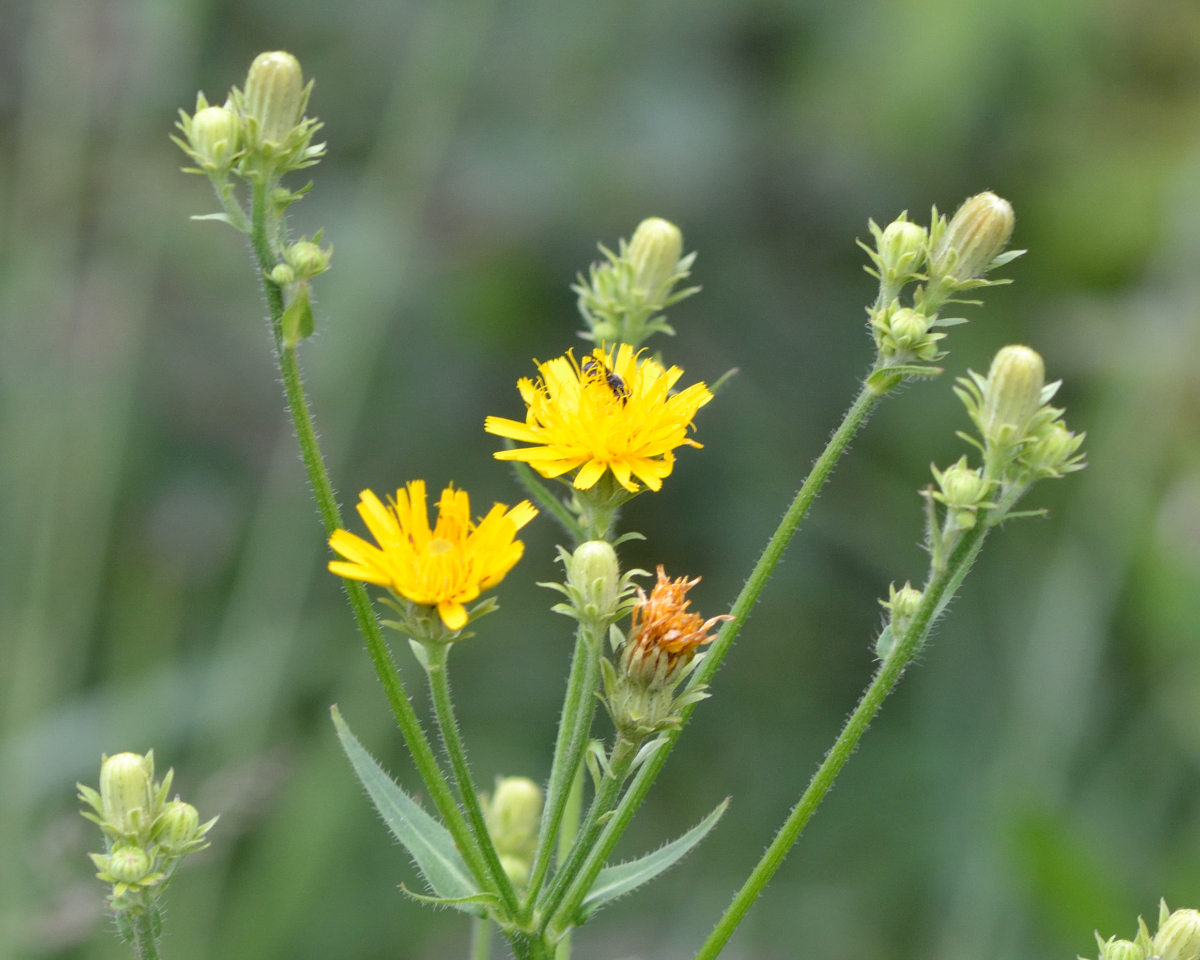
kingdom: Plantae
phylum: Tracheophyta
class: Magnoliopsida
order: Asterales
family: Asteraceae
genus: Picris
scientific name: Picris hieracioides
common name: Hawkweed oxtongue
